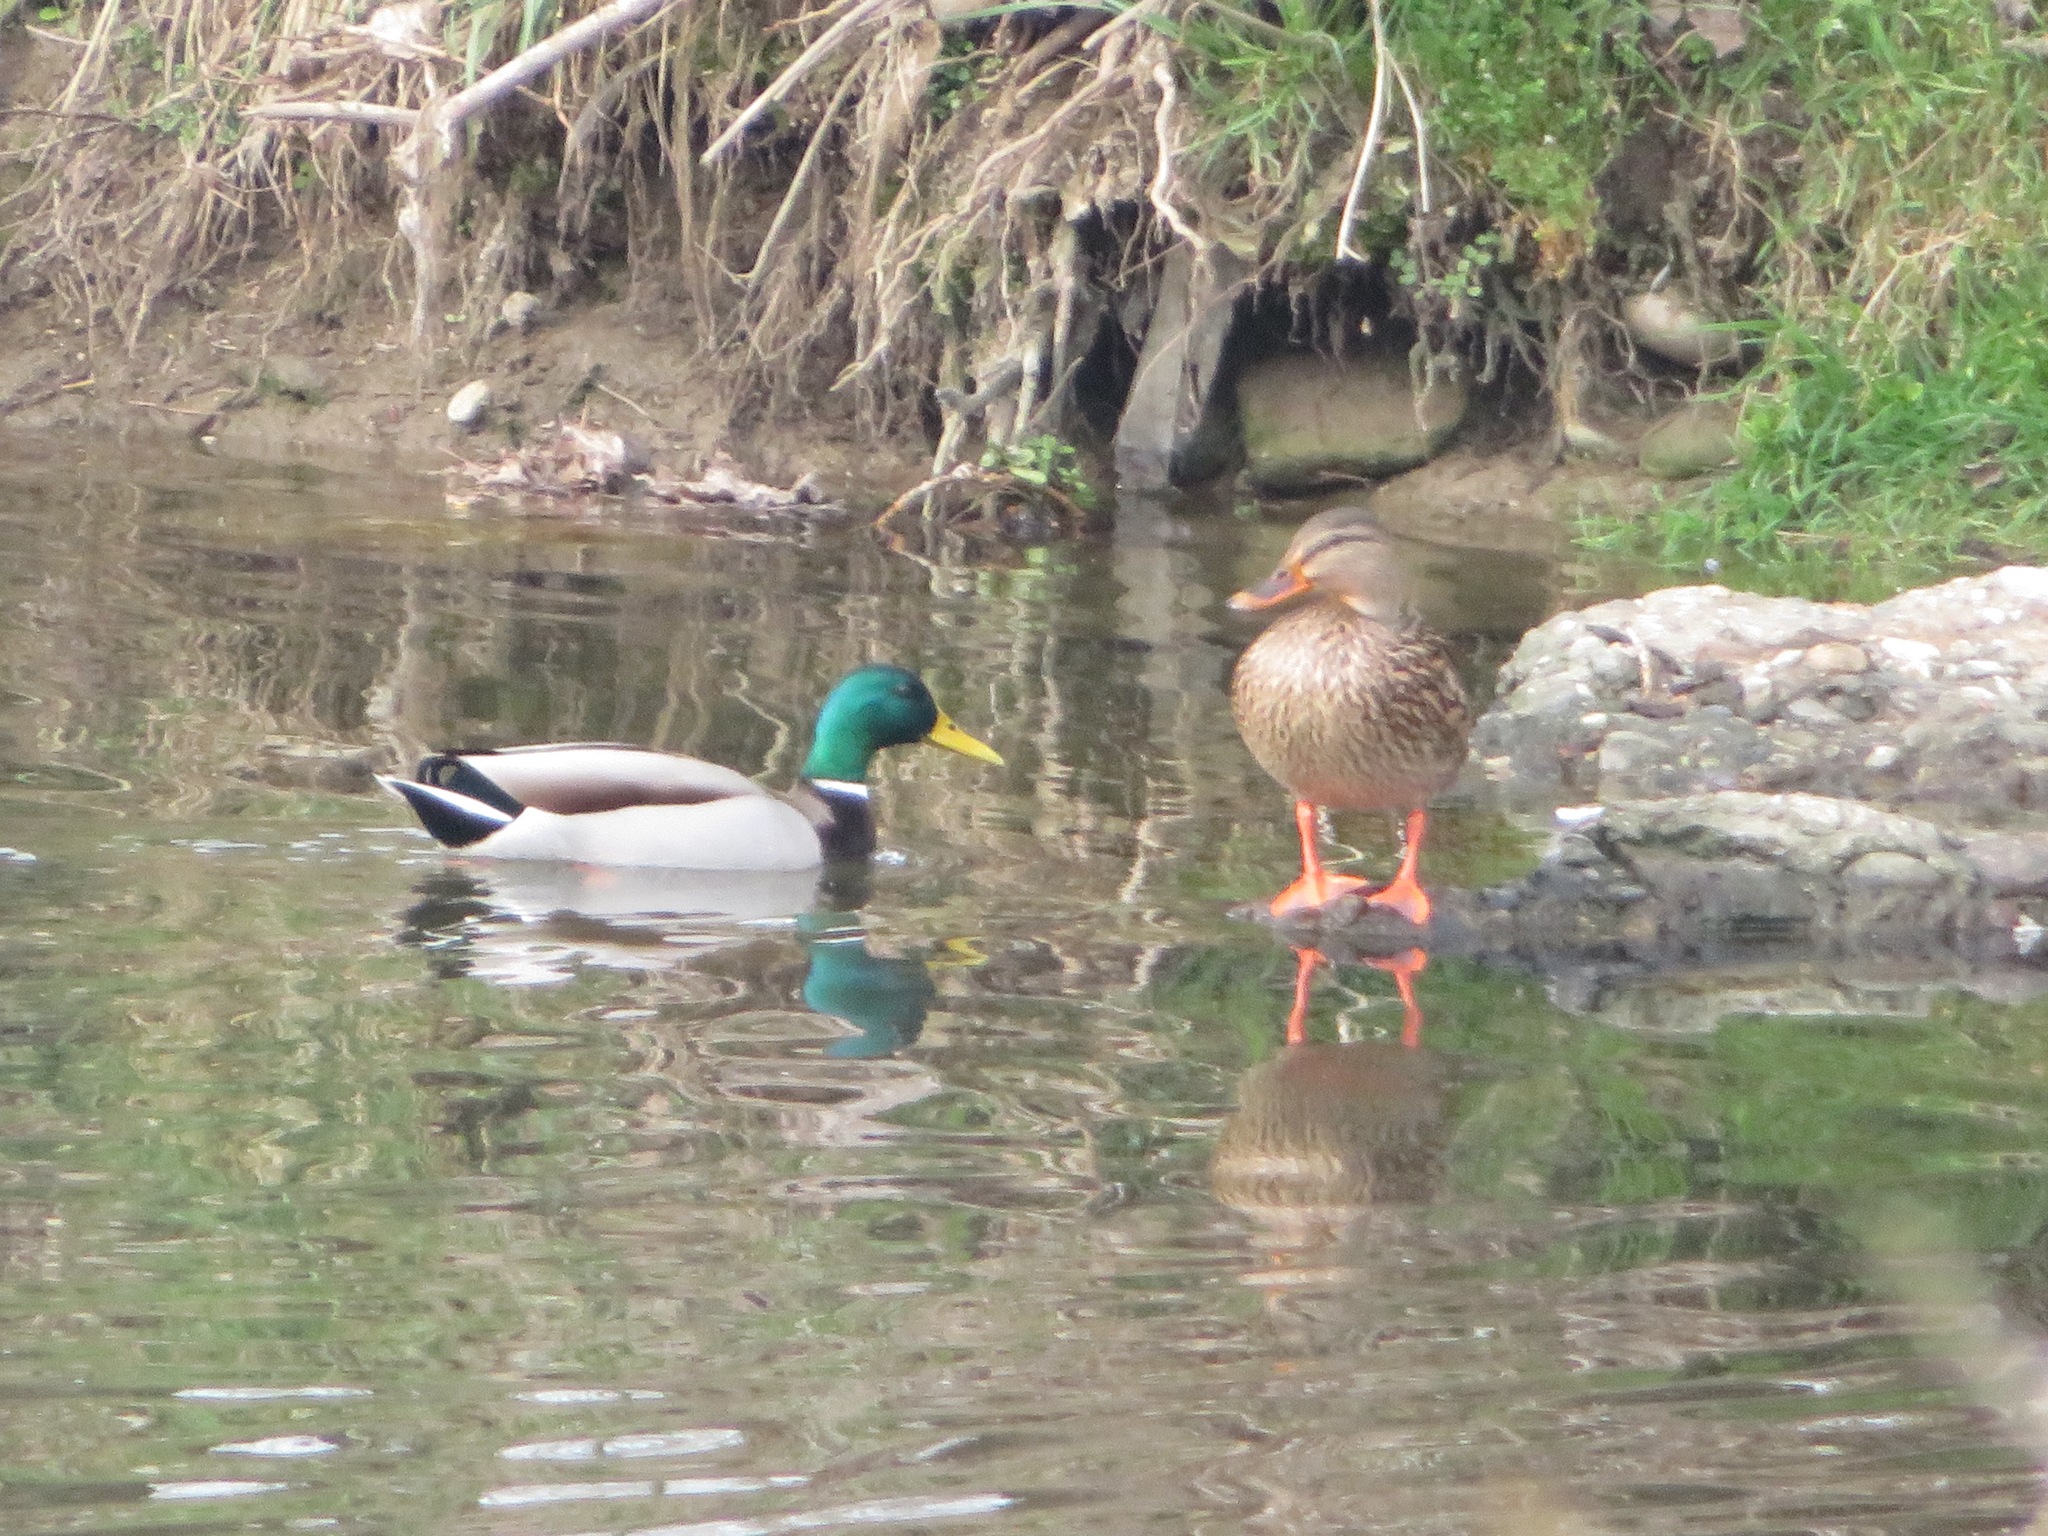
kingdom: Animalia
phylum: Chordata
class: Aves
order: Anseriformes
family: Anatidae
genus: Anas
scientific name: Anas platyrhynchos
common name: Mallard
